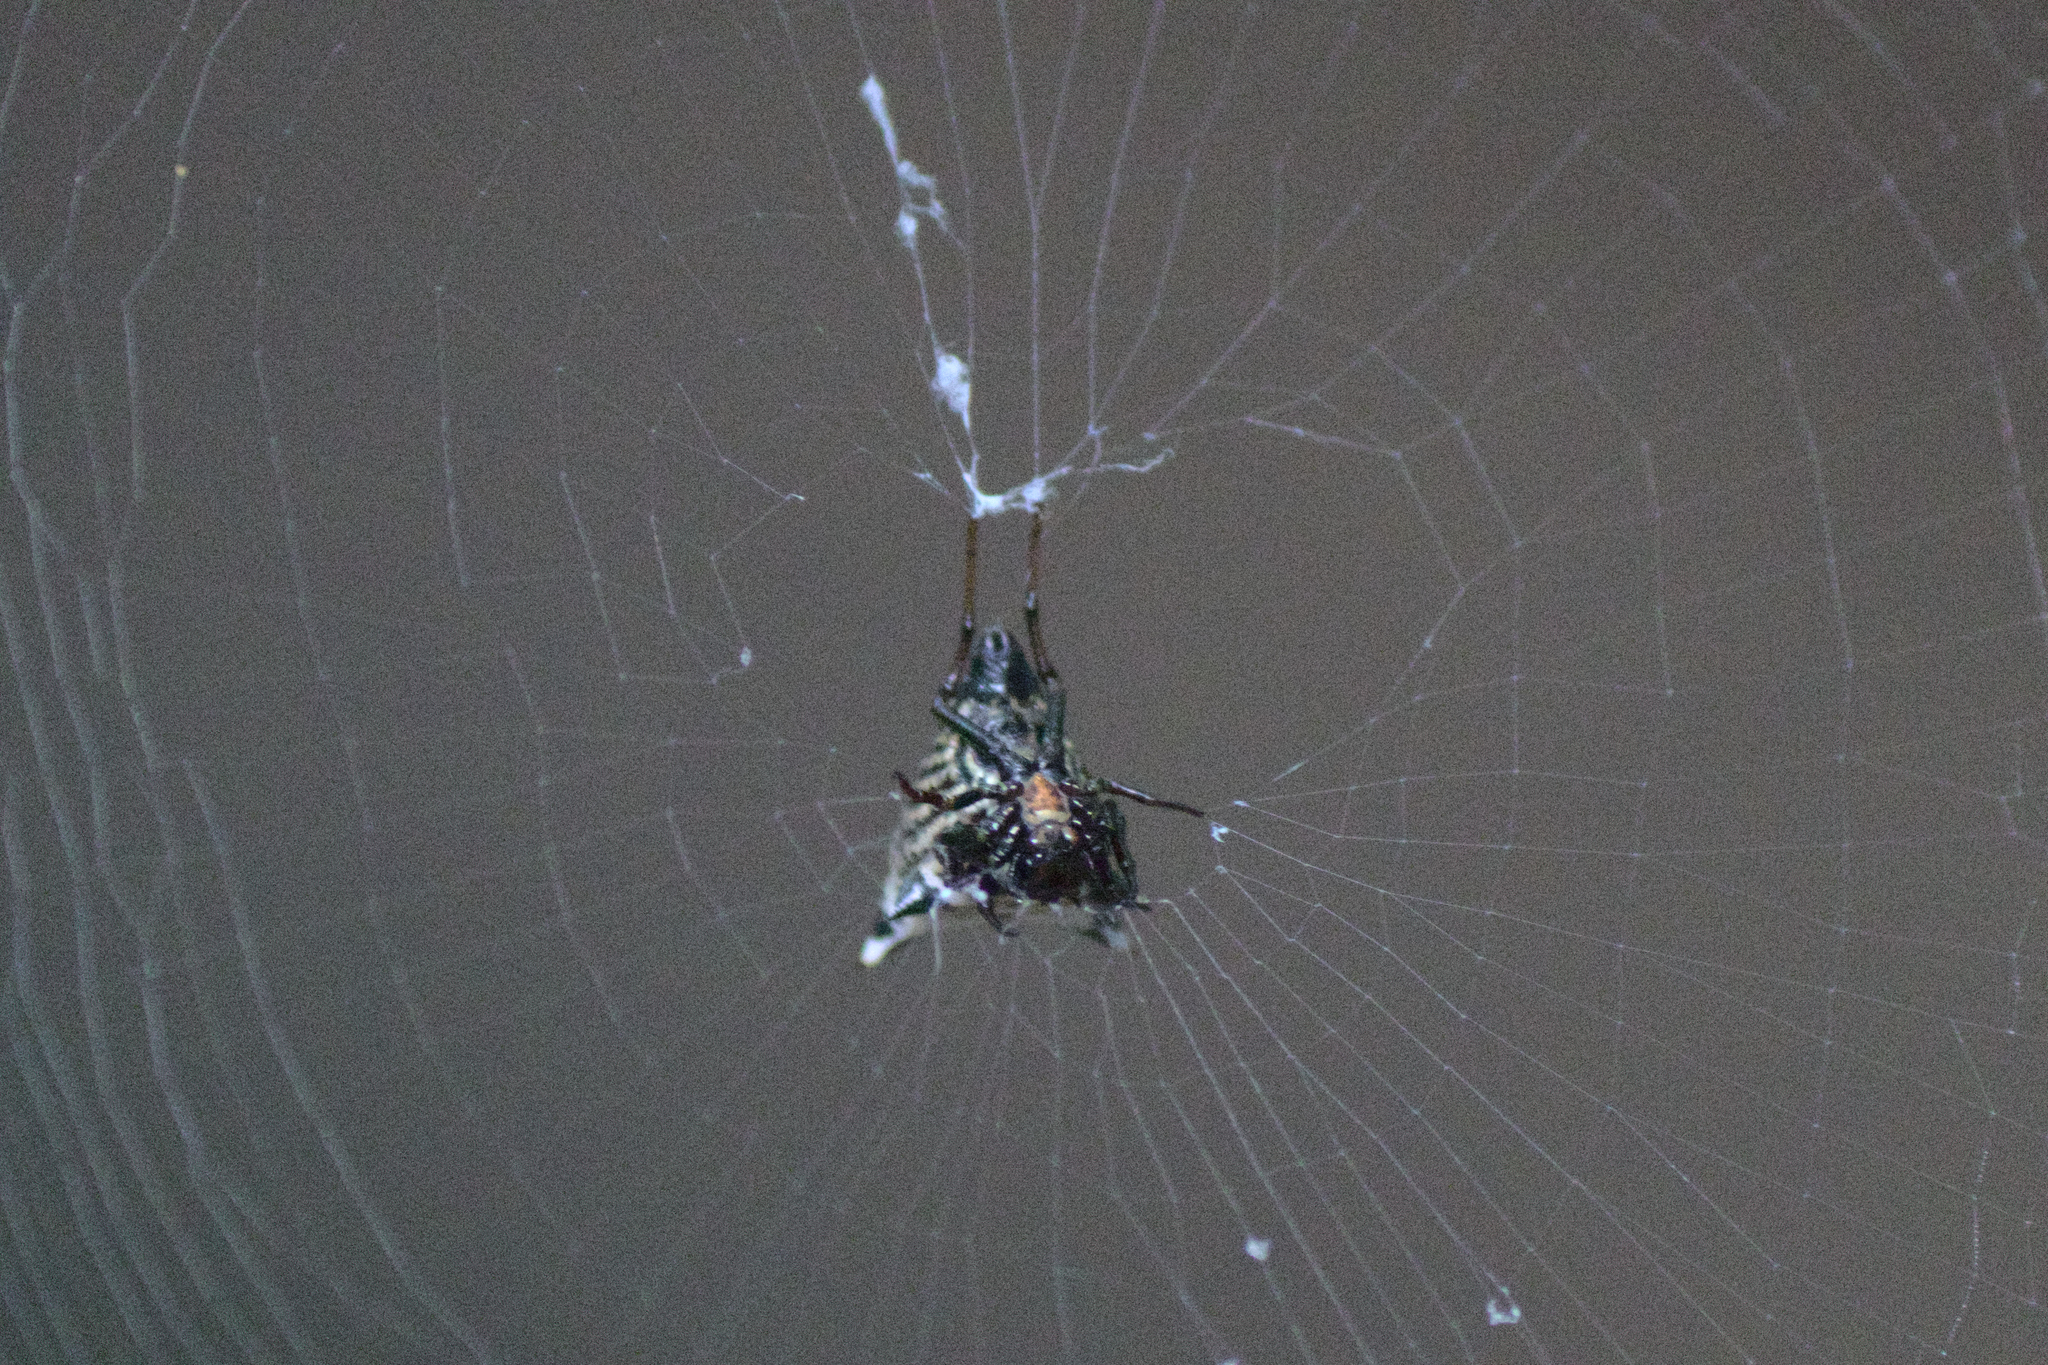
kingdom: Animalia
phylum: Arthropoda
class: Arachnida
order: Araneae
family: Araneidae
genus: Micrathena
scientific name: Micrathena gracilis
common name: Orb weavers
